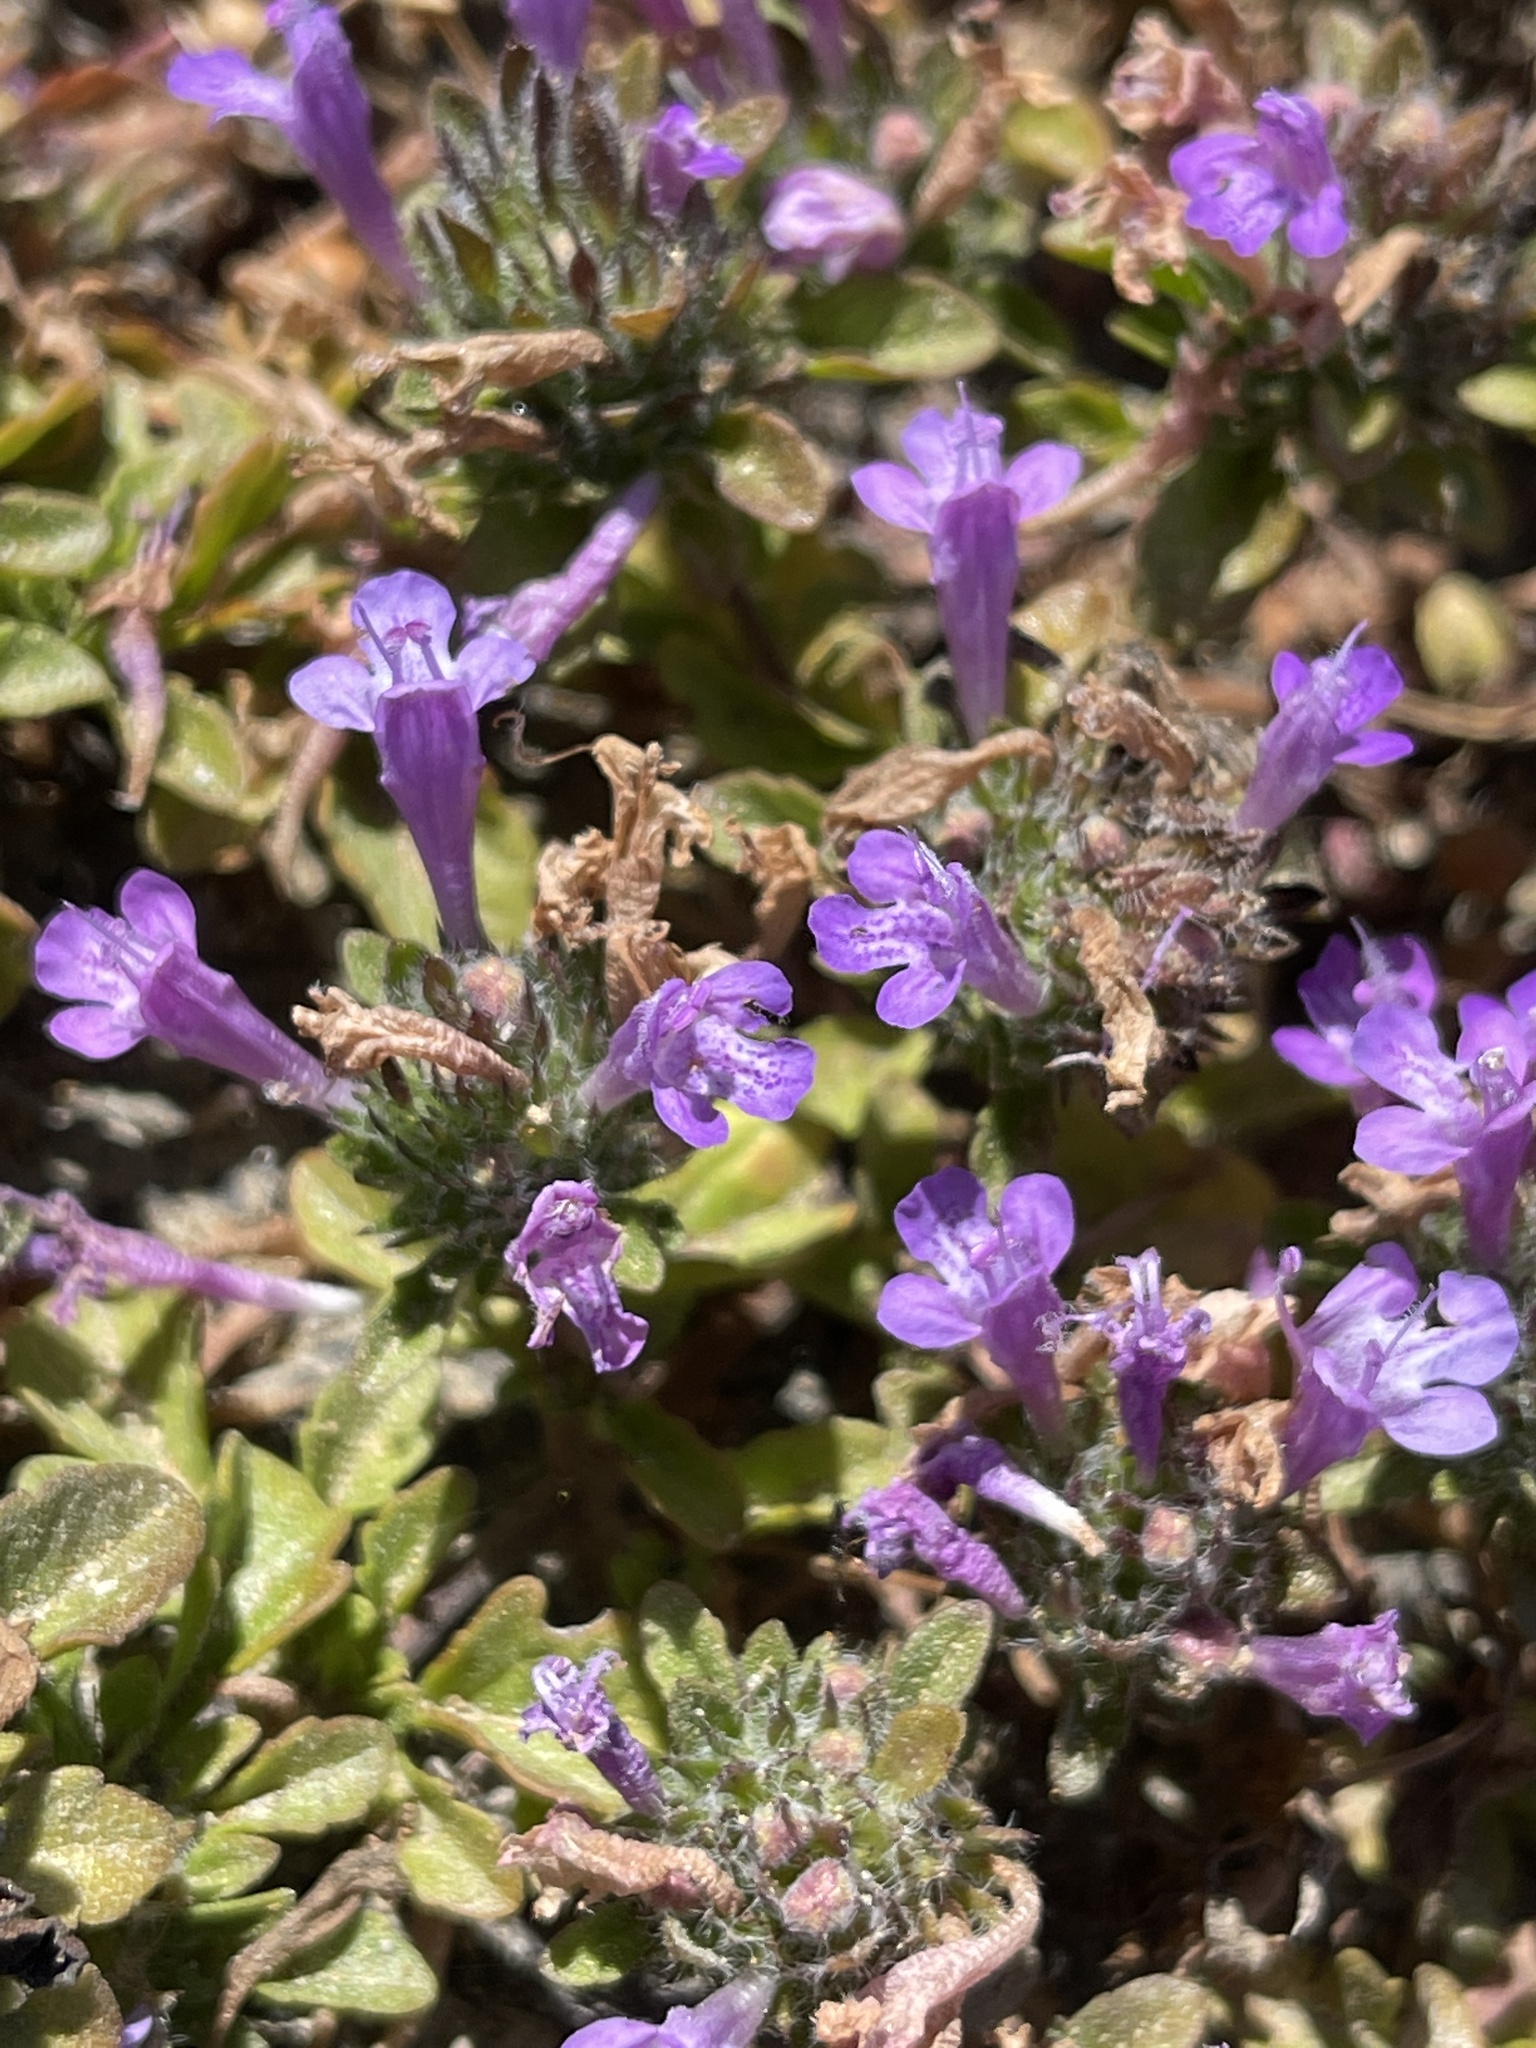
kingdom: Plantae
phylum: Tracheophyta
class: Magnoliopsida
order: Lamiales
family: Lamiaceae
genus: Pogogyne
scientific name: Pogogyne douglasii
